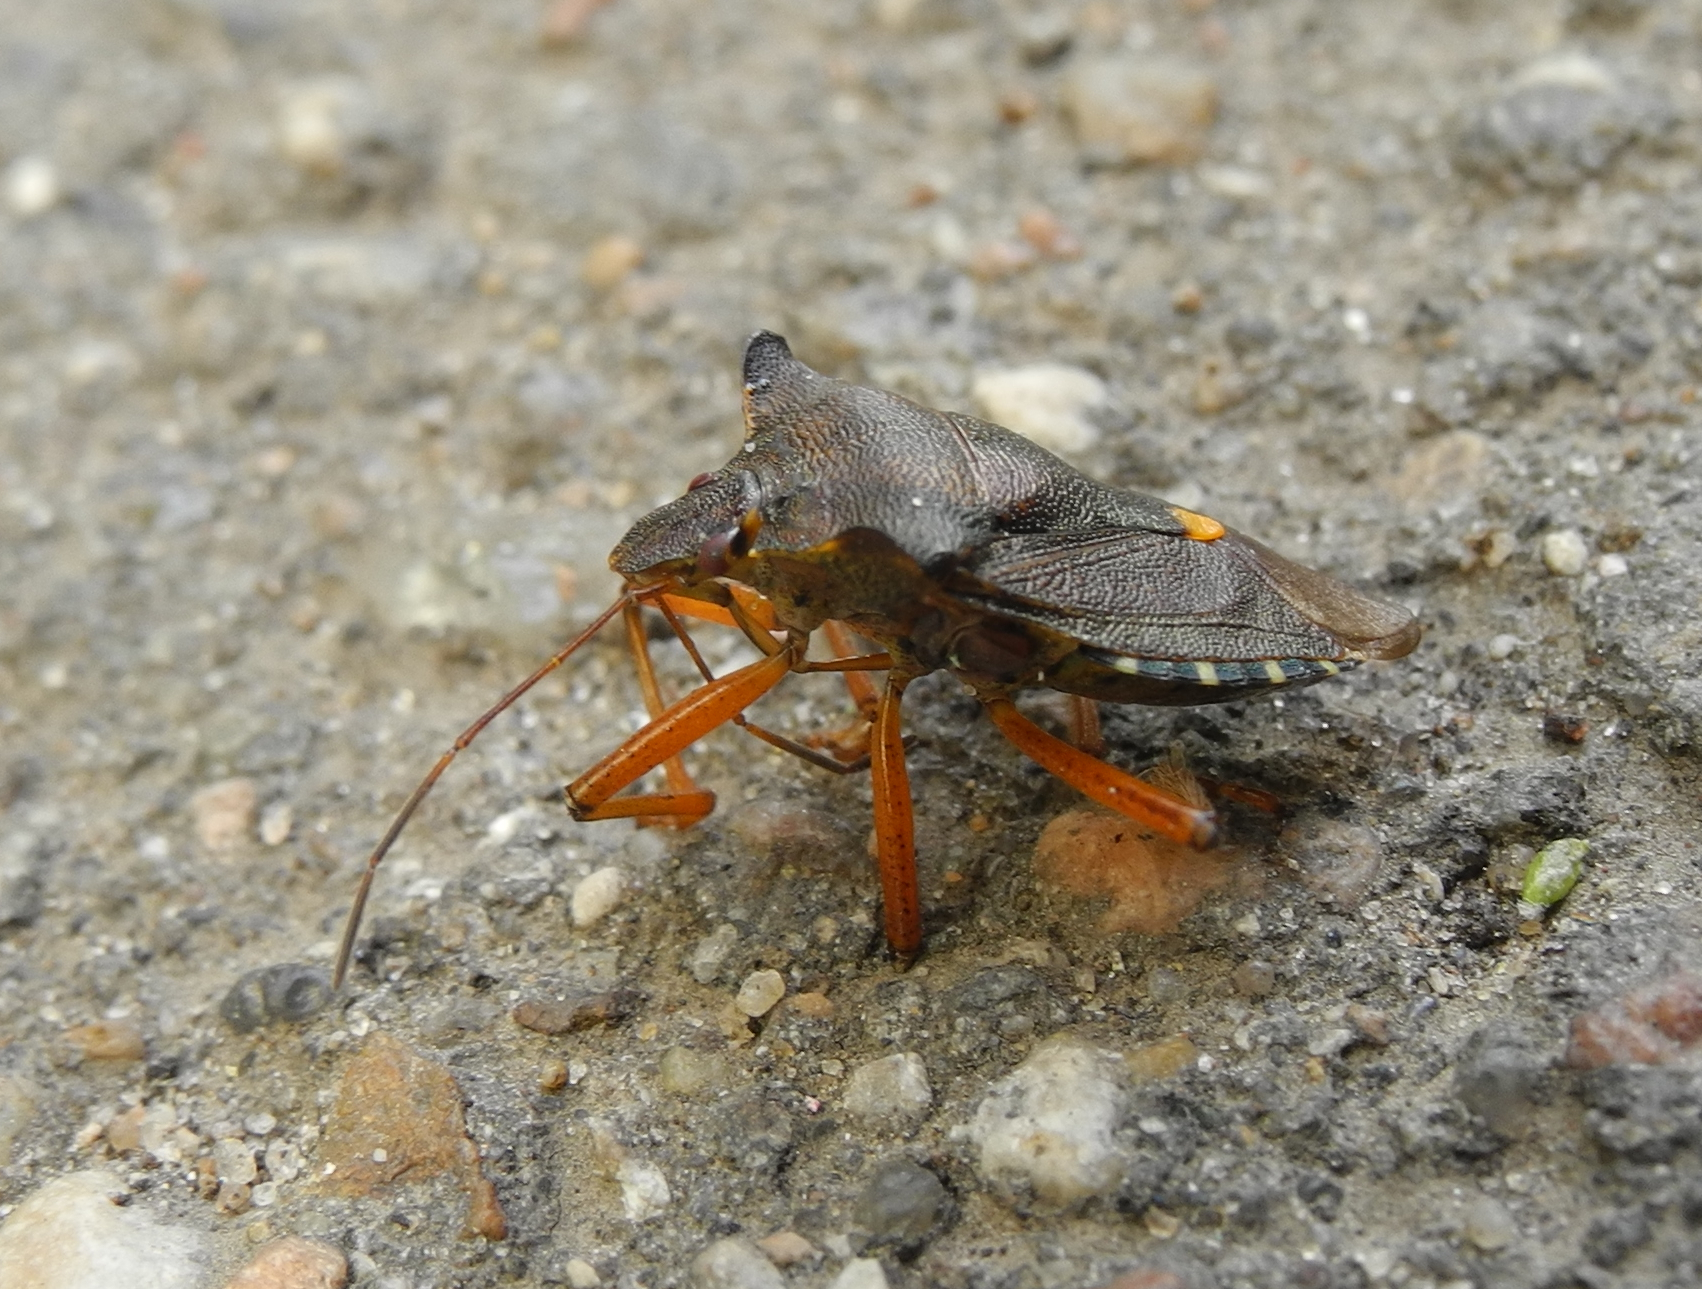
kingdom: Animalia
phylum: Arthropoda
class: Insecta
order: Hemiptera
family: Pentatomidae
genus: Pentatoma
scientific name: Pentatoma rufipes
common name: Forest bug
